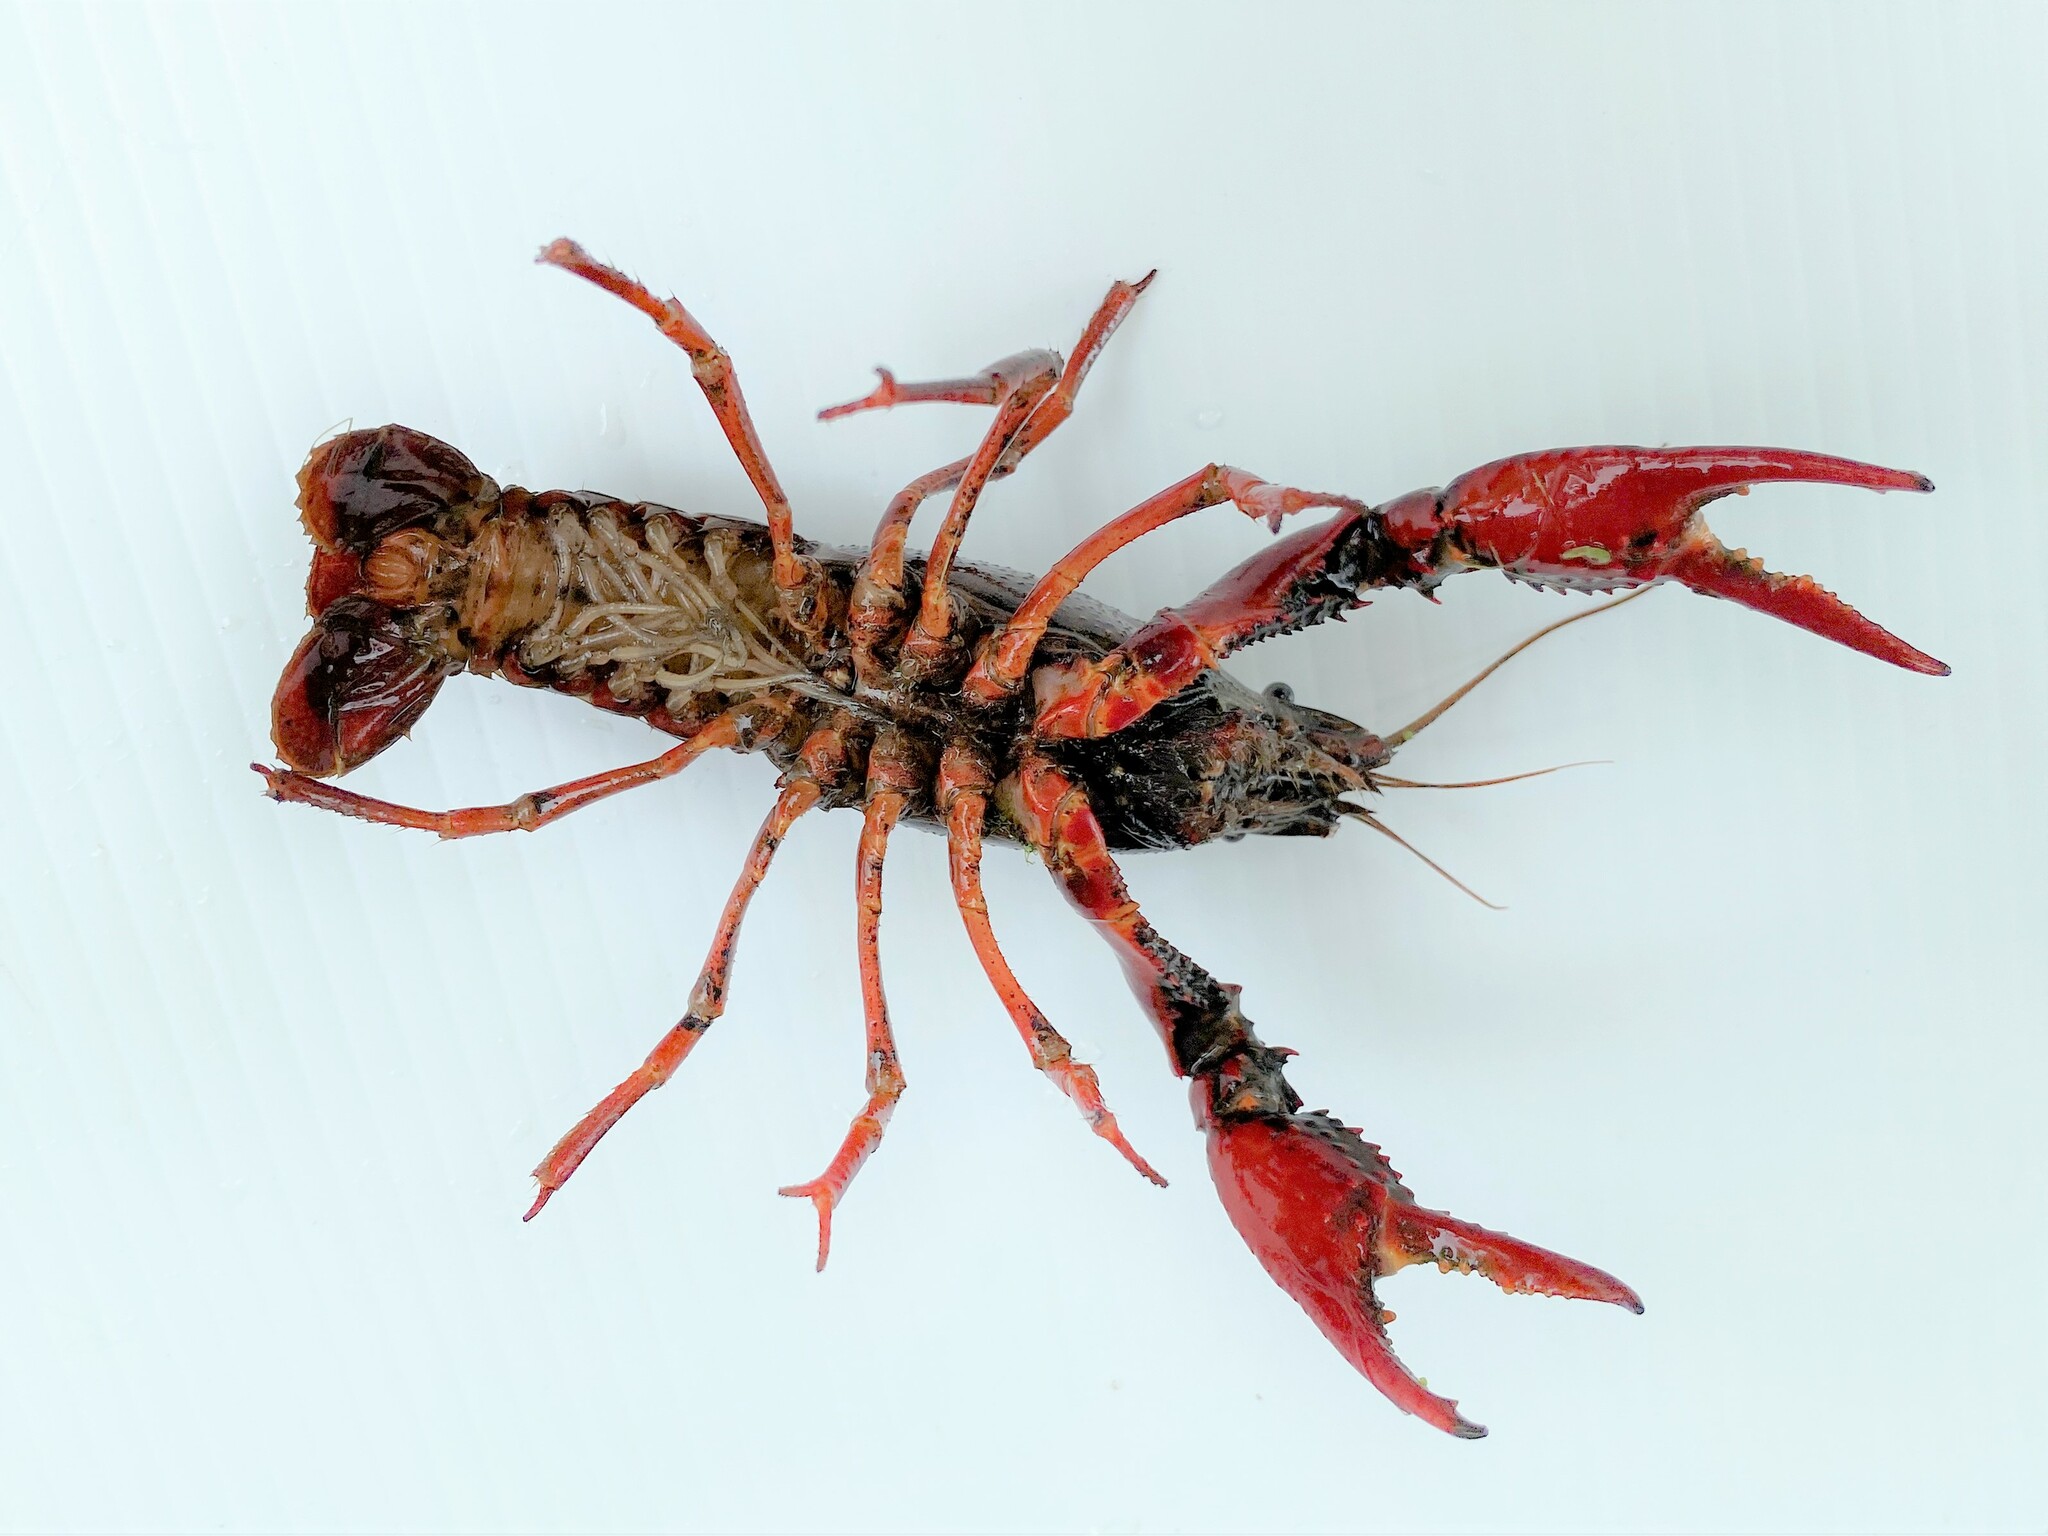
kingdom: Animalia
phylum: Arthropoda
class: Malacostraca
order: Decapoda
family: Cambaridae
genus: Procambarus
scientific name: Procambarus clarkii
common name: Red swamp crayfish
